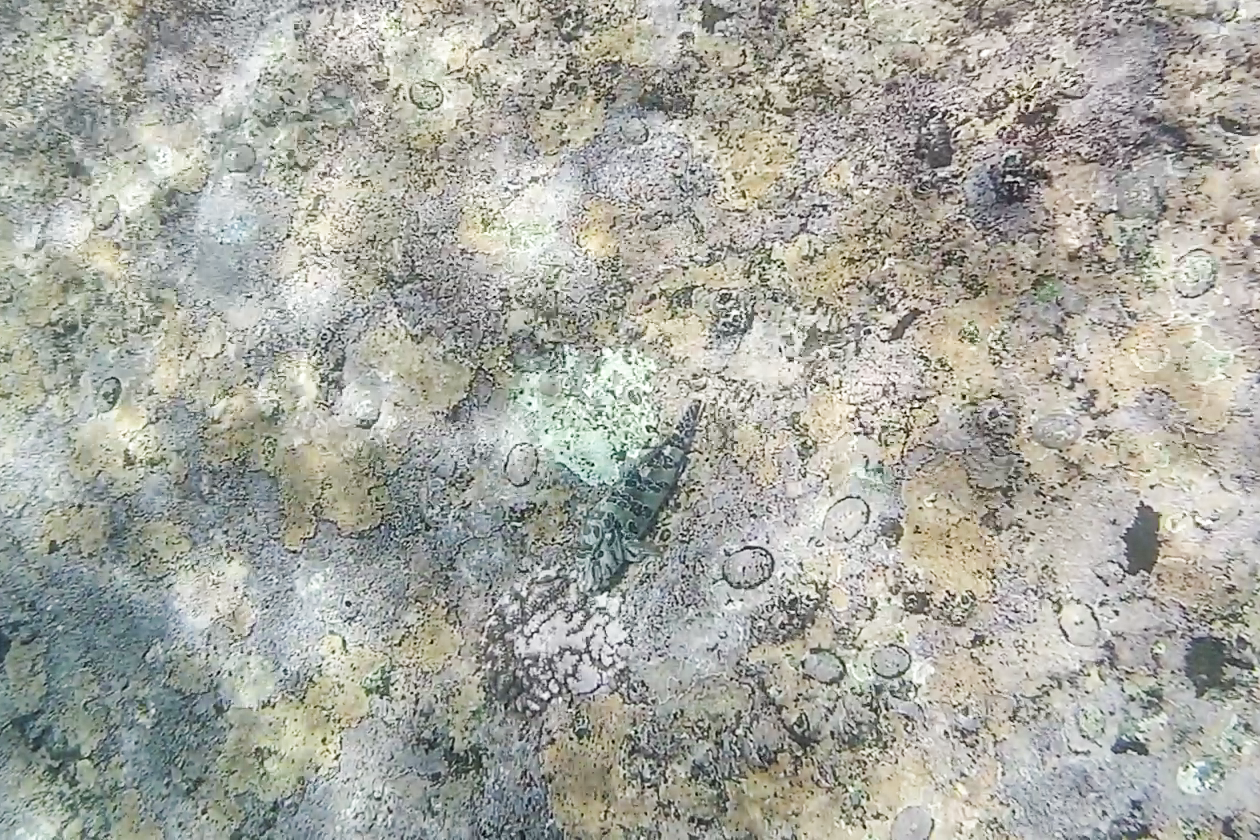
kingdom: Animalia
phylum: Chordata
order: Perciformes
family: Cirrhitidae
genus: Cirrhitus
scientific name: Cirrhitus rivulatus
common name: Giant hawkfish
